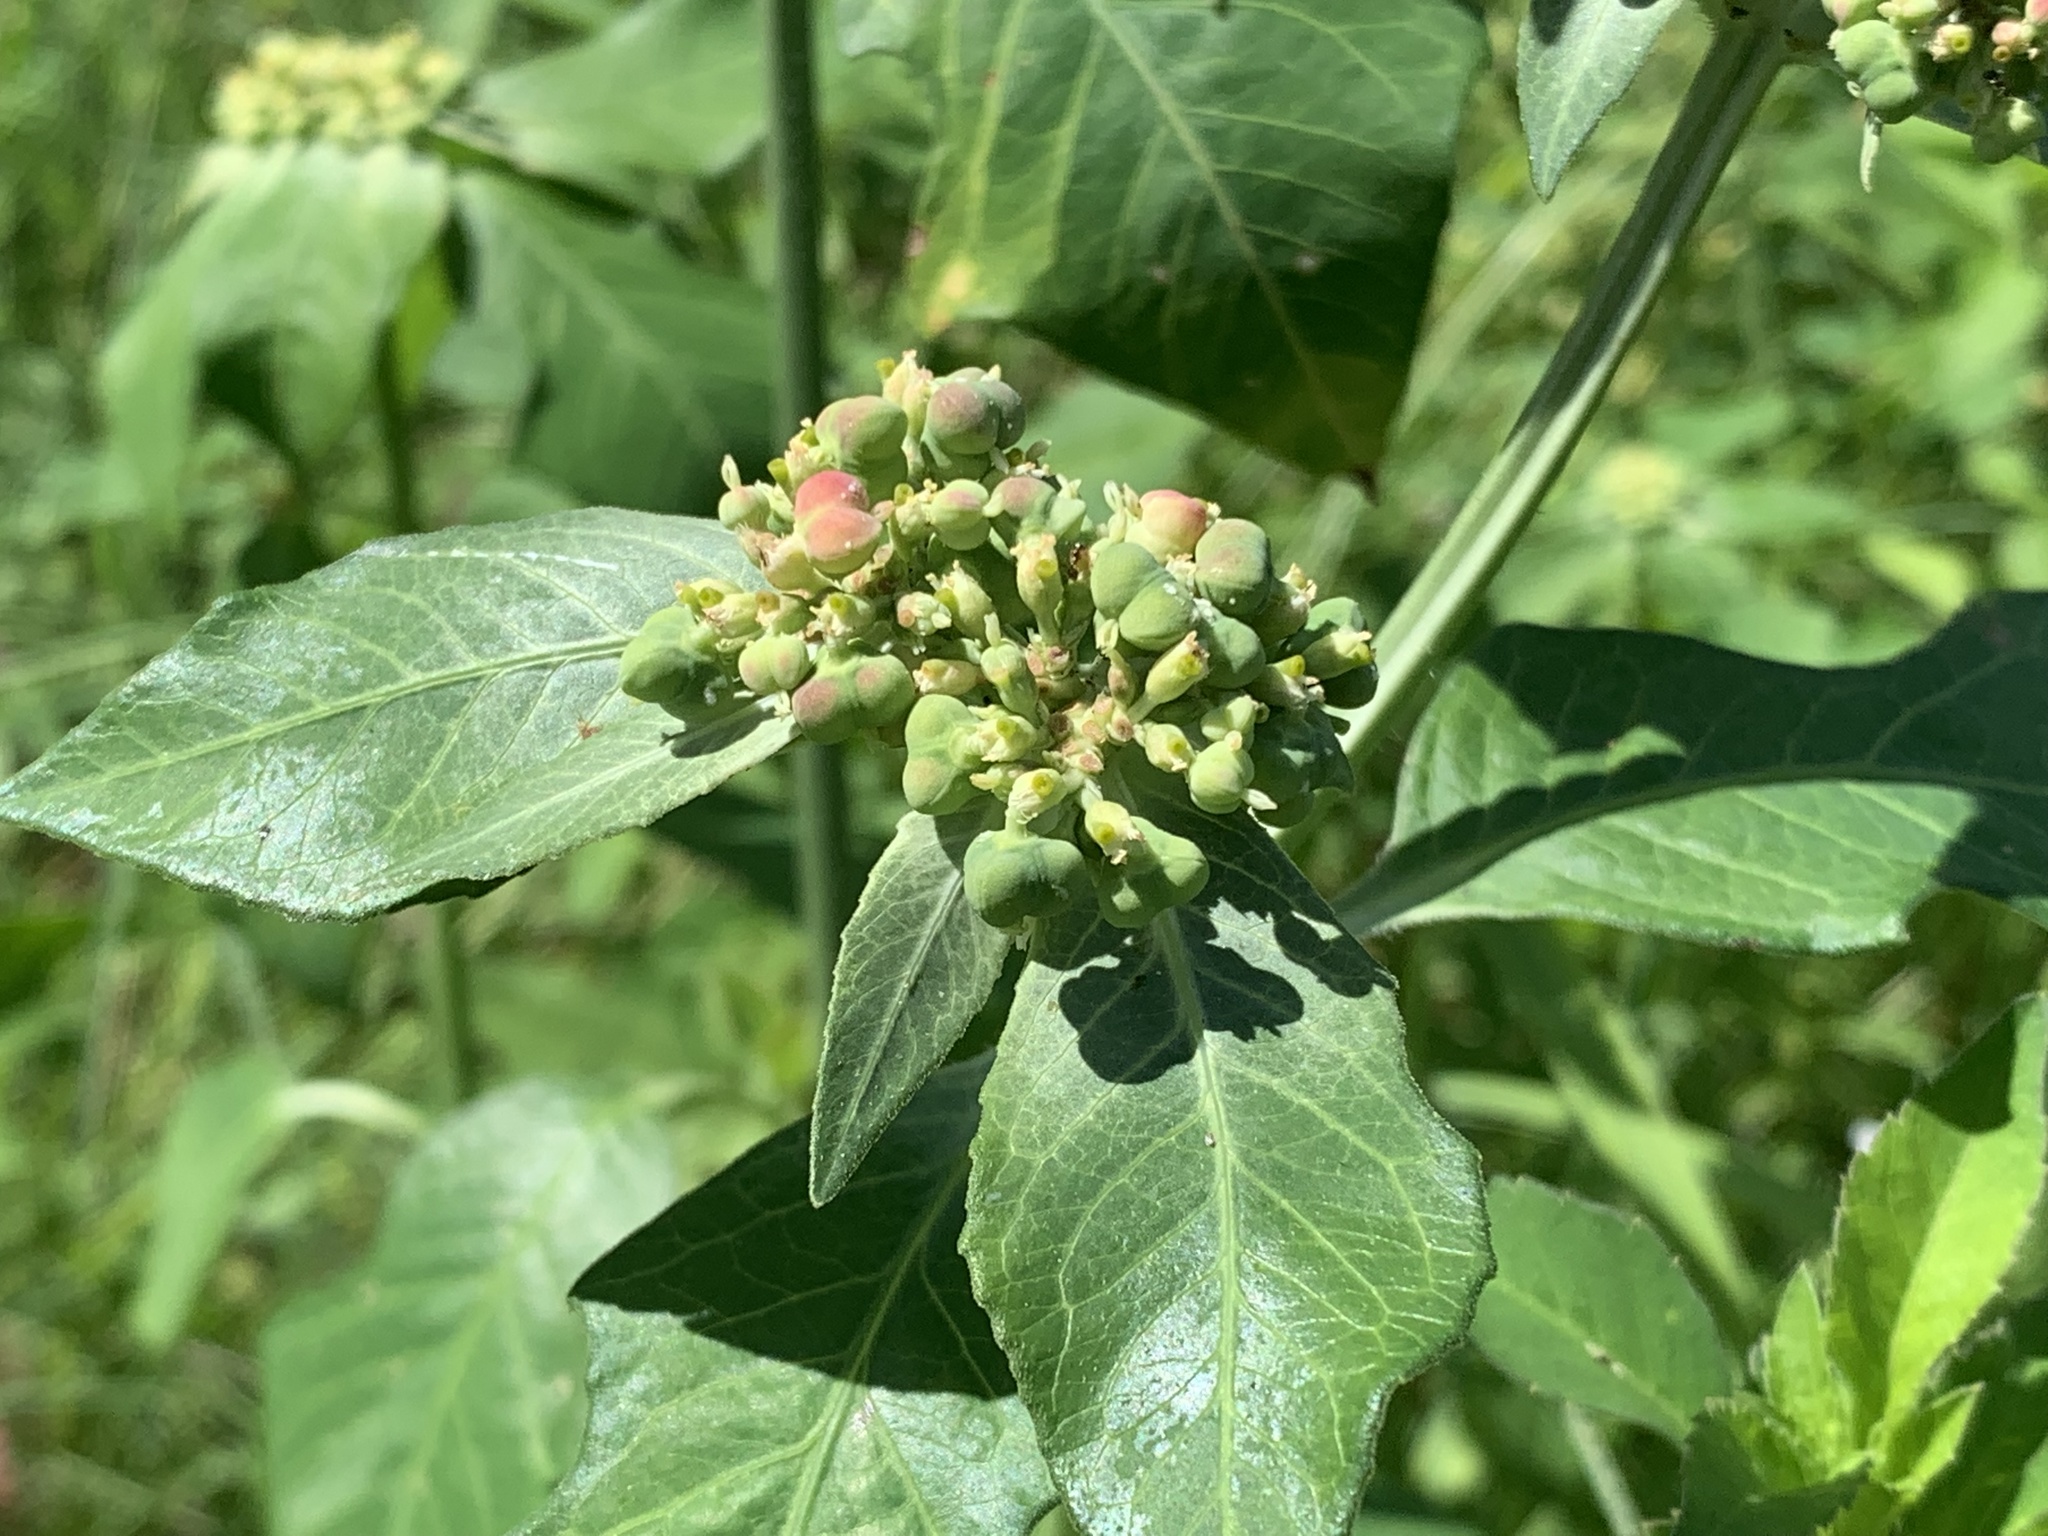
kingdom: Plantae
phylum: Tracheophyta
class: Magnoliopsida
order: Malpighiales
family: Euphorbiaceae
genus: Euphorbia
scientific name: Euphorbia heterophylla
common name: Mexican fireplant
